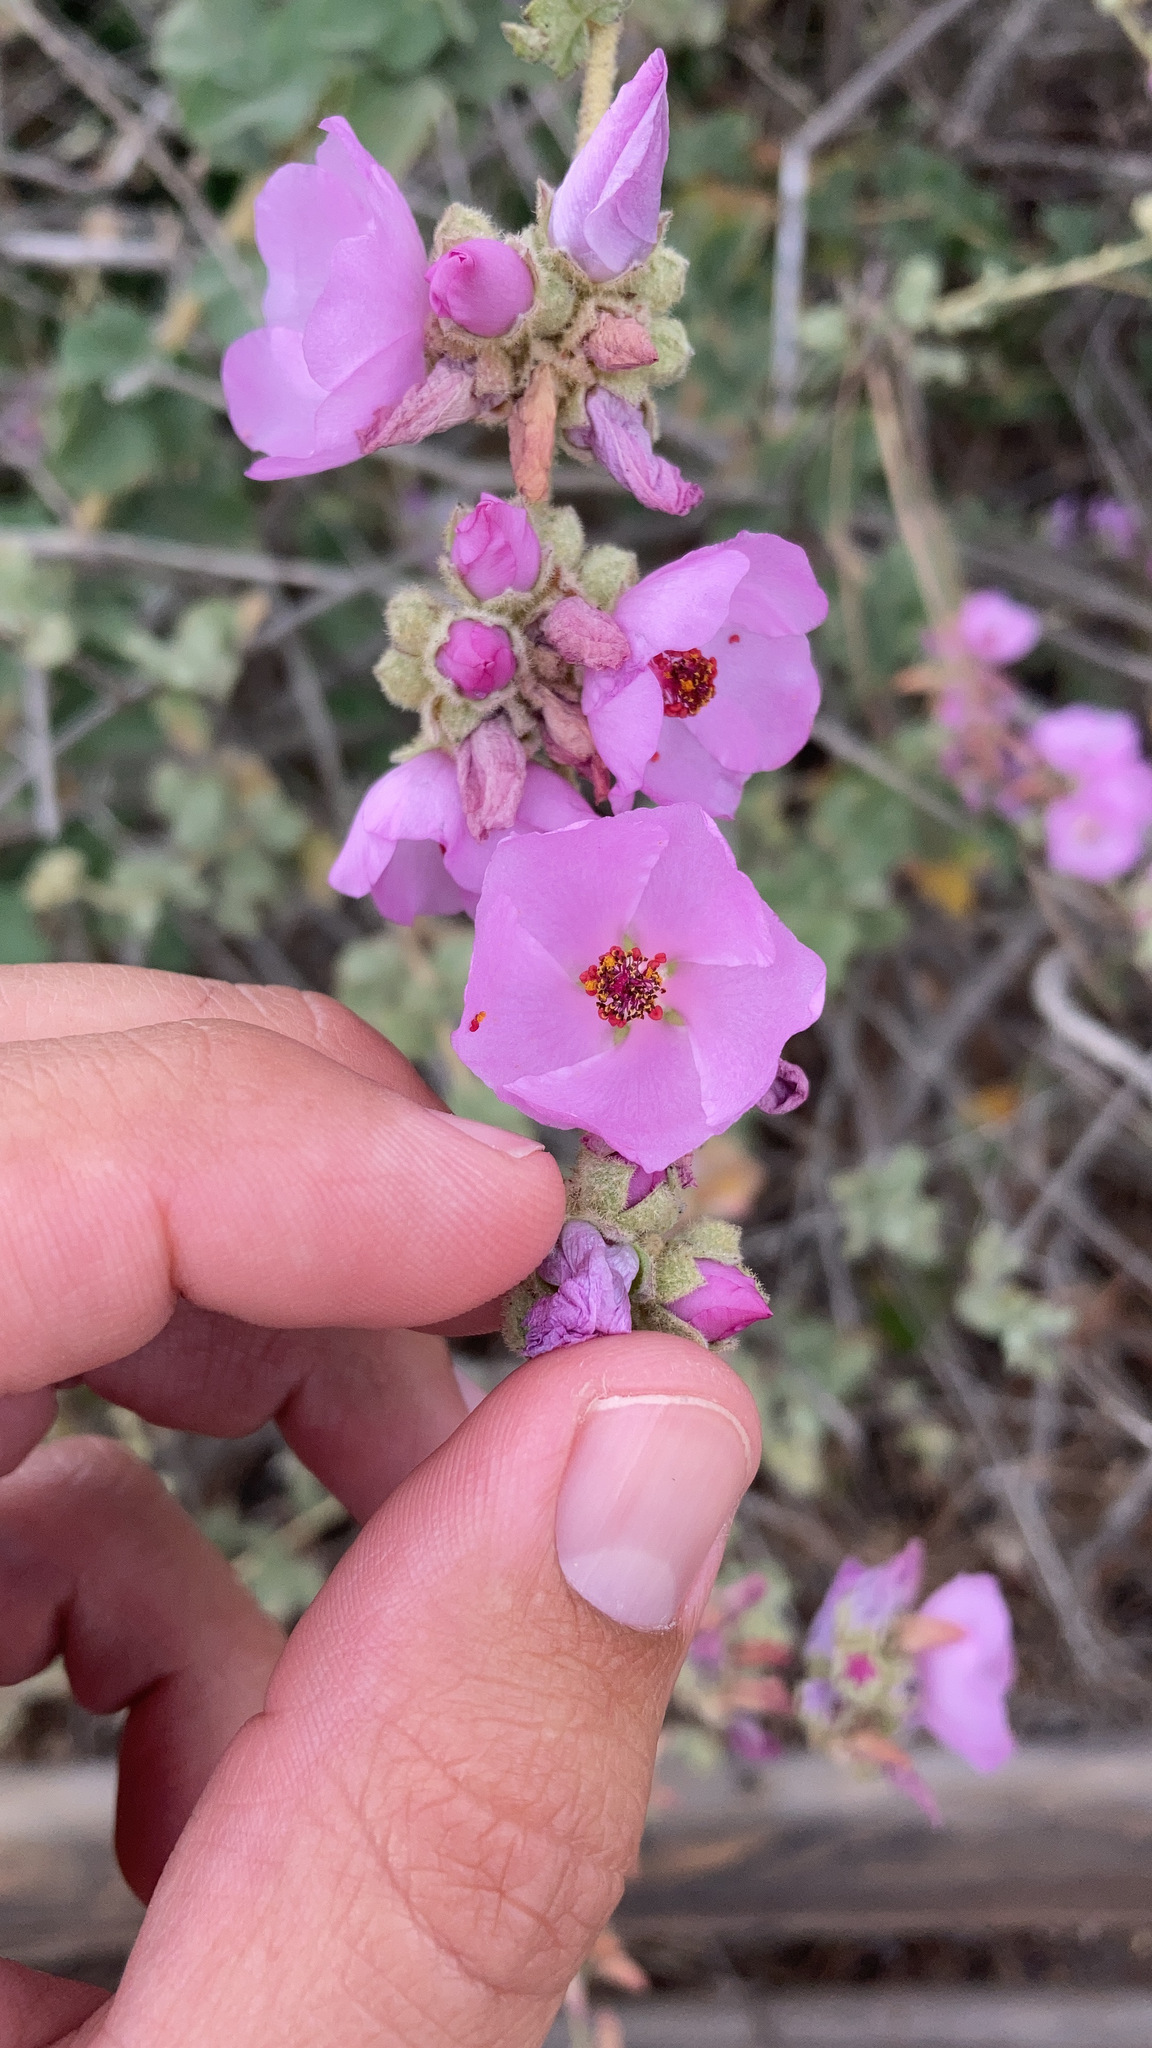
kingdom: Plantae
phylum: Tracheophyta
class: Magnoliopsida
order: Malvales
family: Malvaceae
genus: Malacothamnus
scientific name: Malacothamnus fasciculatus
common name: Sant cruz island bush-mallow
